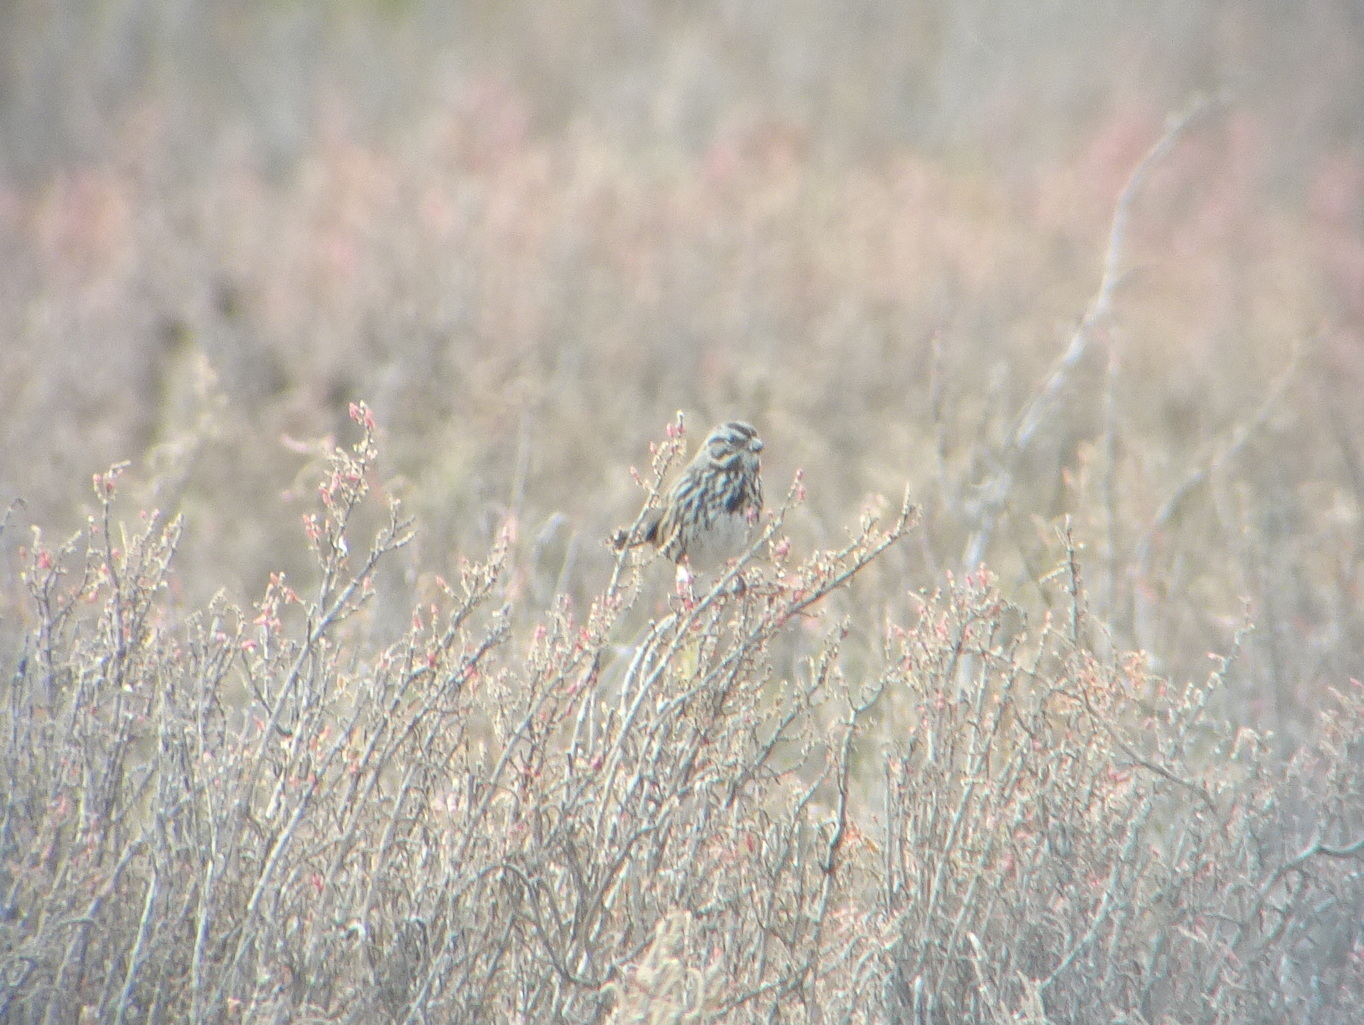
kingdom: Animalia
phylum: Chordata
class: Aves
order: Passeriformes
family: Passerellidae
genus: Melospiza
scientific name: Melospiza melodia
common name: Song sparrow
